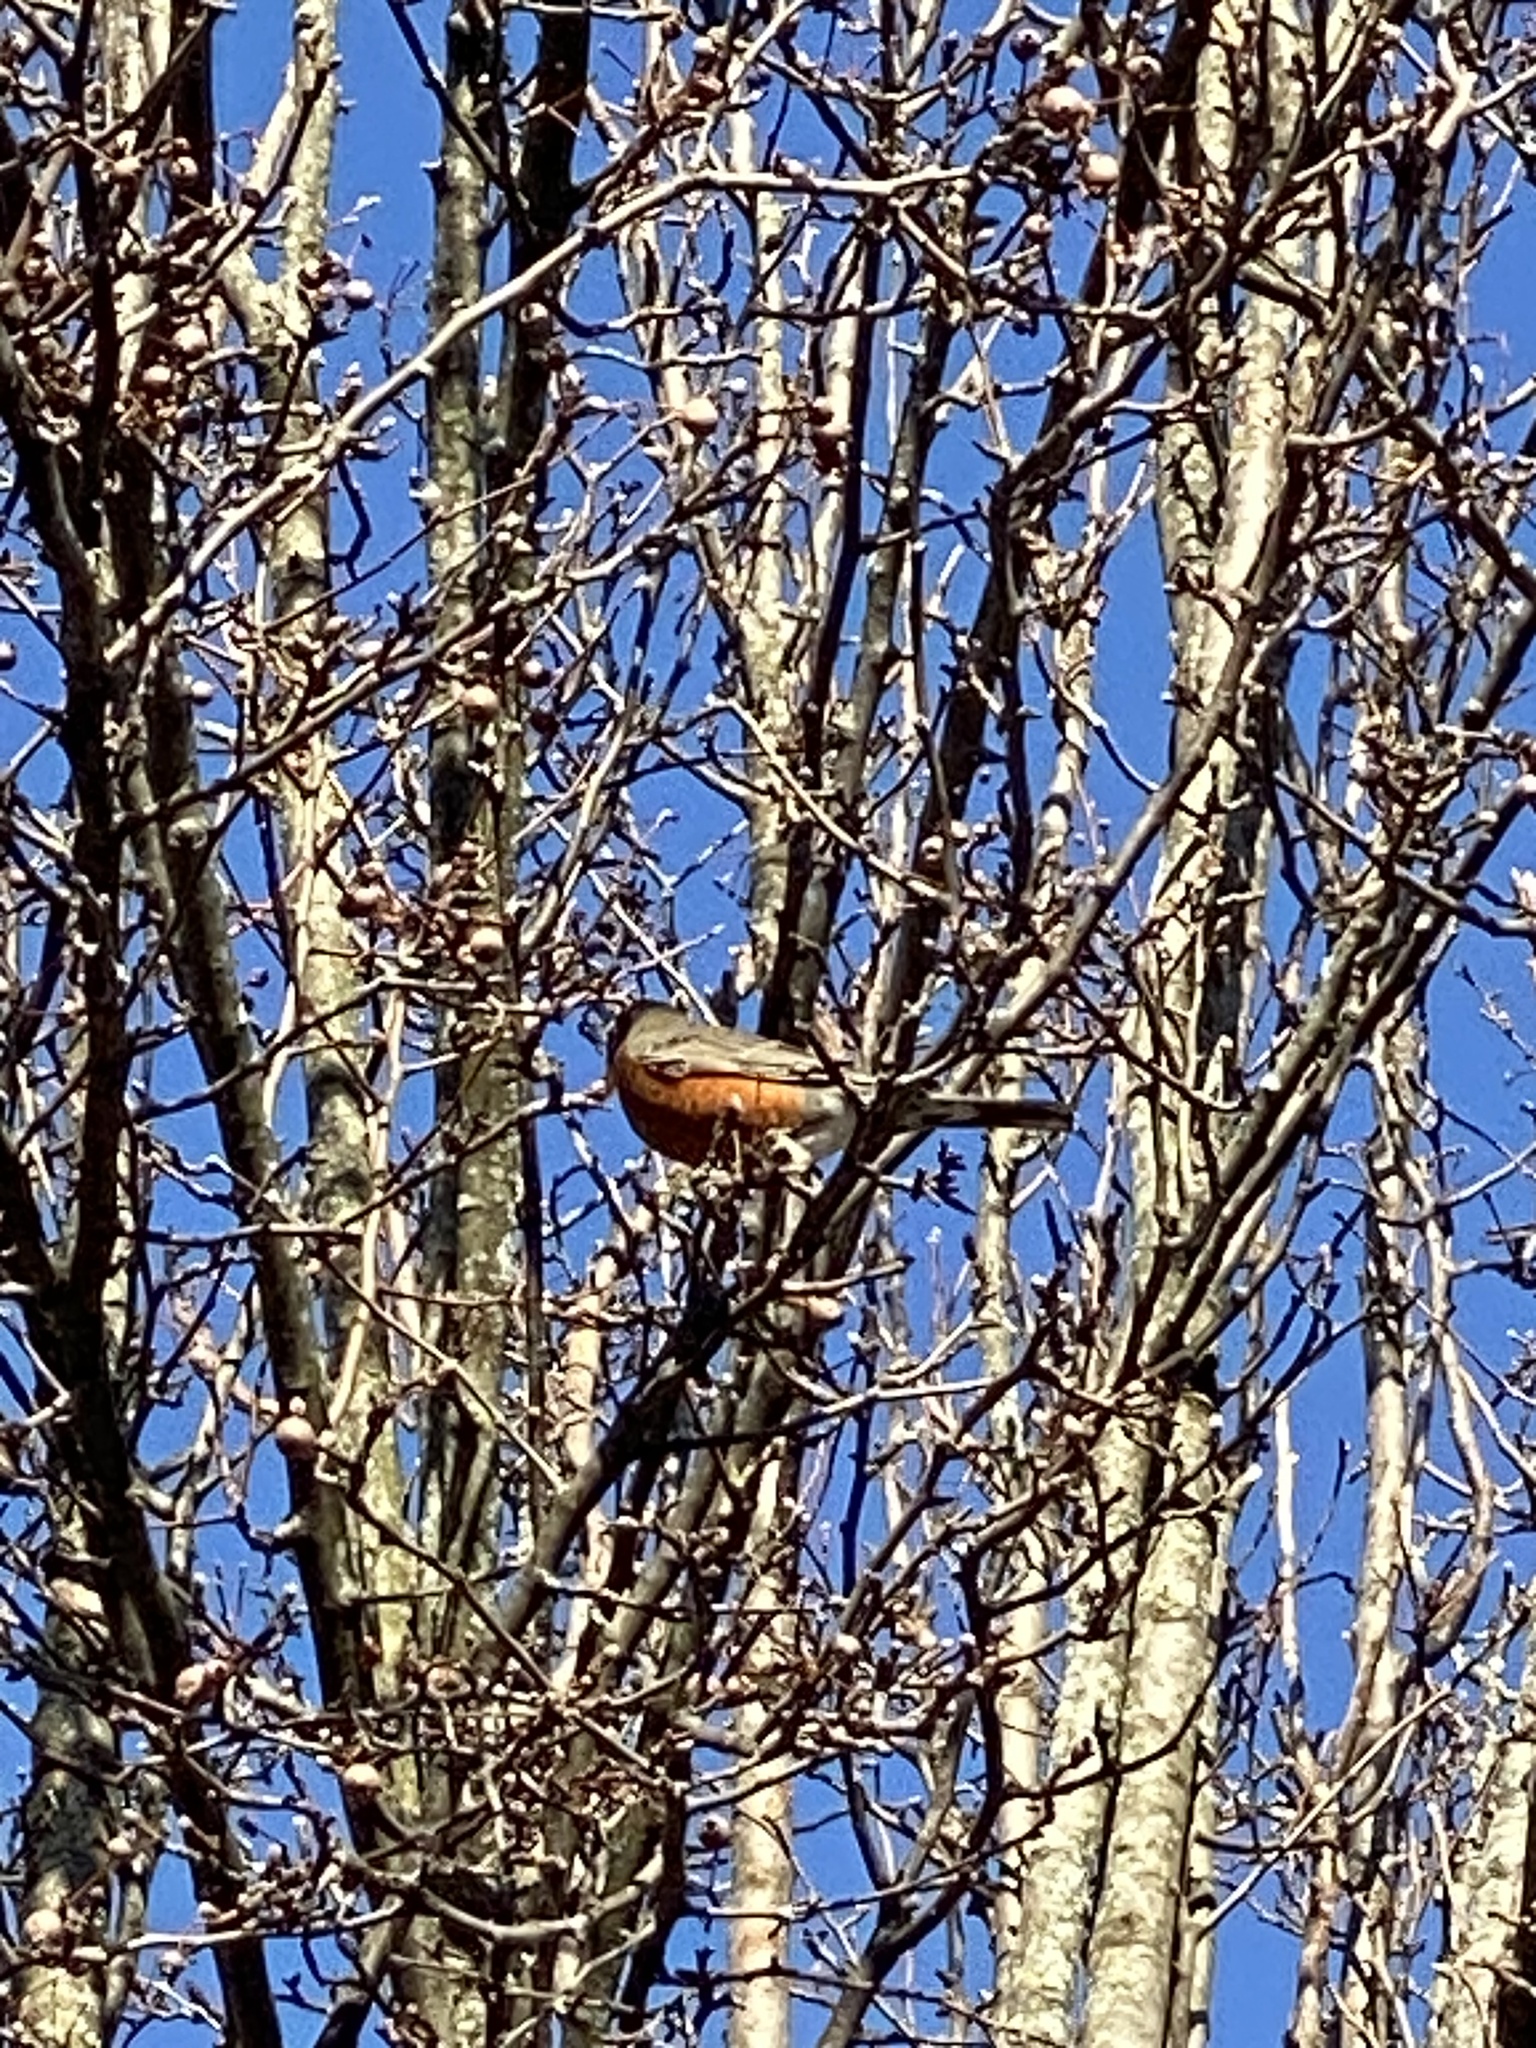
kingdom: Animalia
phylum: Chordata
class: Aves
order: Passeriformes
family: Turdidae
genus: Turdus
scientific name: Turdus migratorius
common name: American robin
